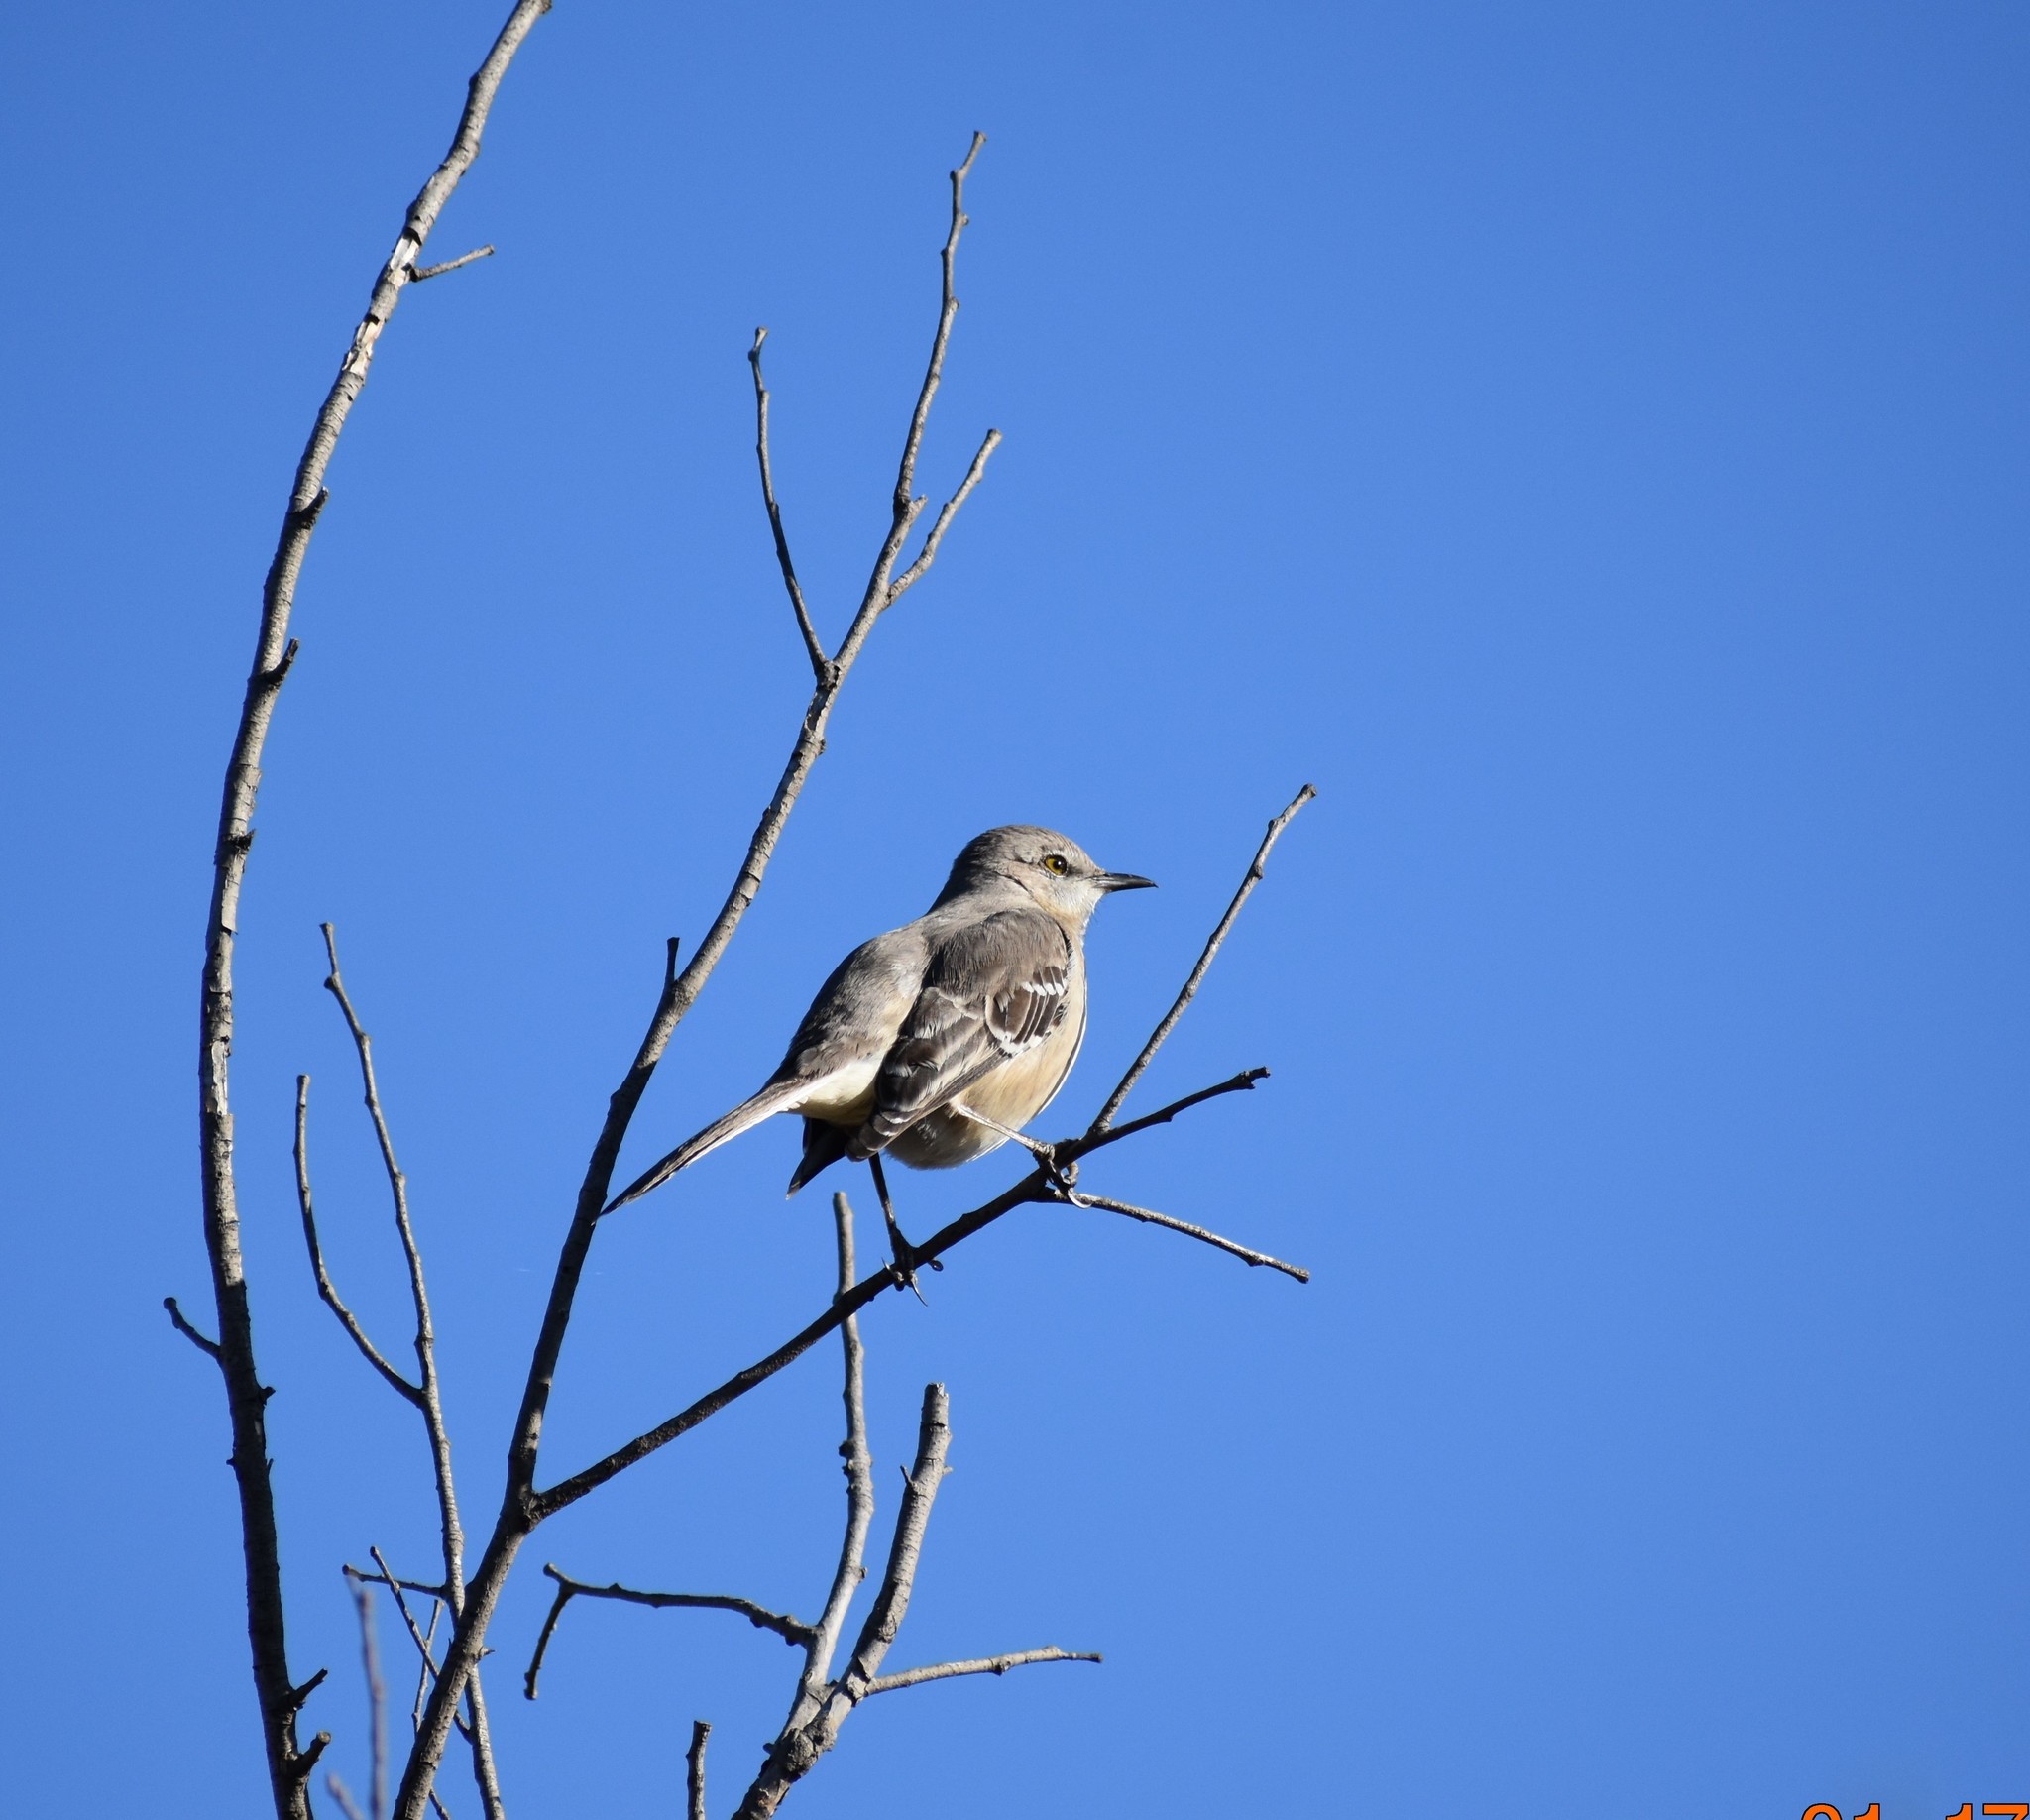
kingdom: Animalia
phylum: Chordata
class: Aves
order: Passeriformes
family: Mimidae
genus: Mimus
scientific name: Mimus polyglottos
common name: Northern mockingbird
